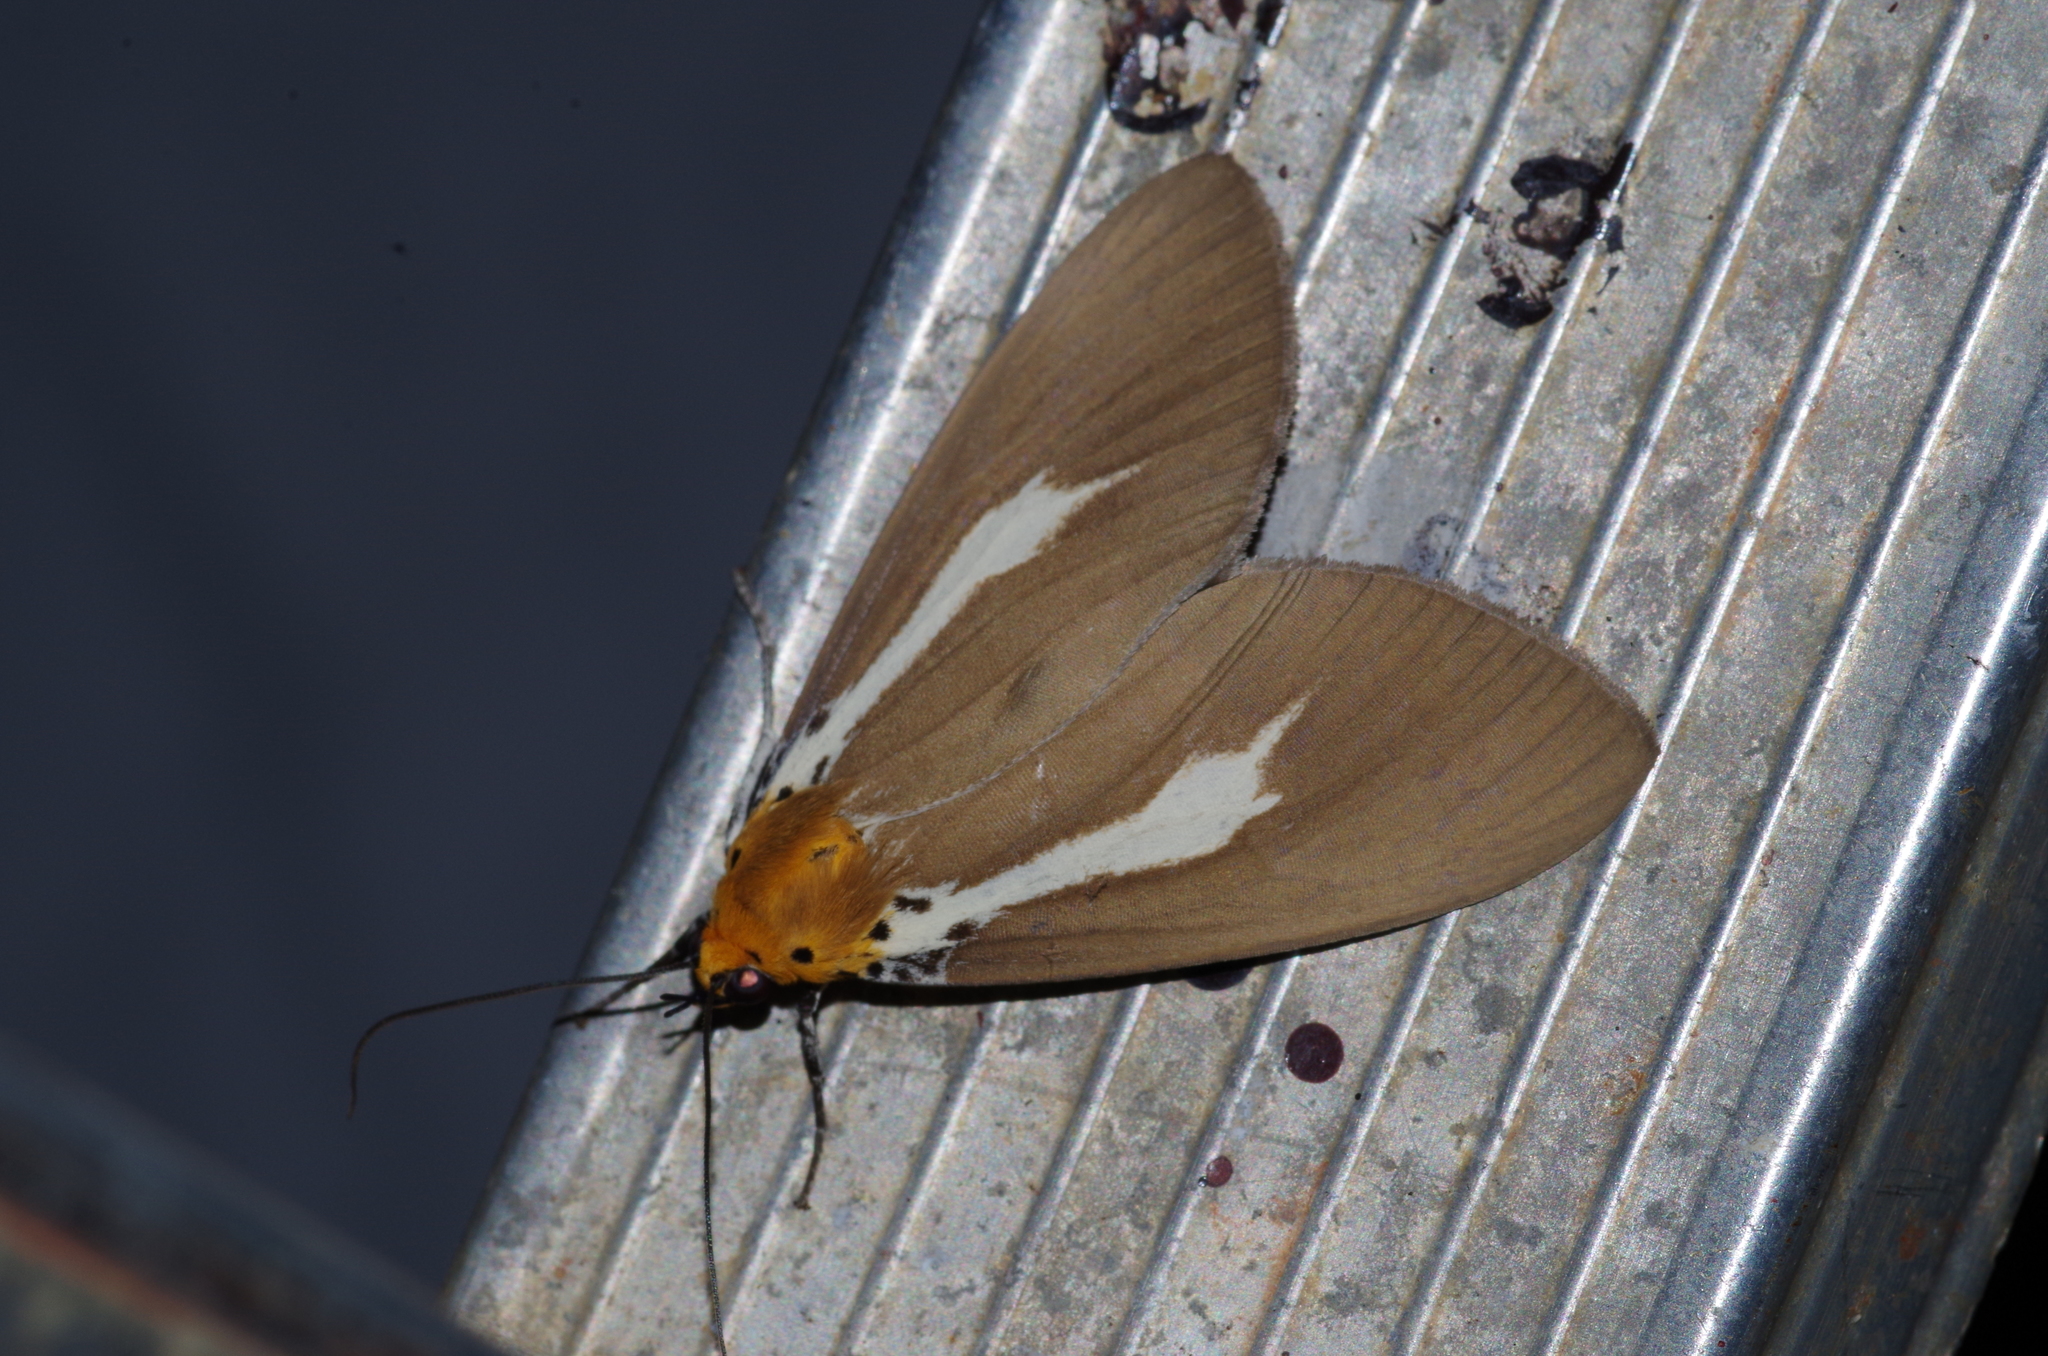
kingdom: Animalia
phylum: Arthropoda
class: Insecta
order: Lepidoptera
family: Erebidae
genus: Asota
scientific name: Asota heliconia
